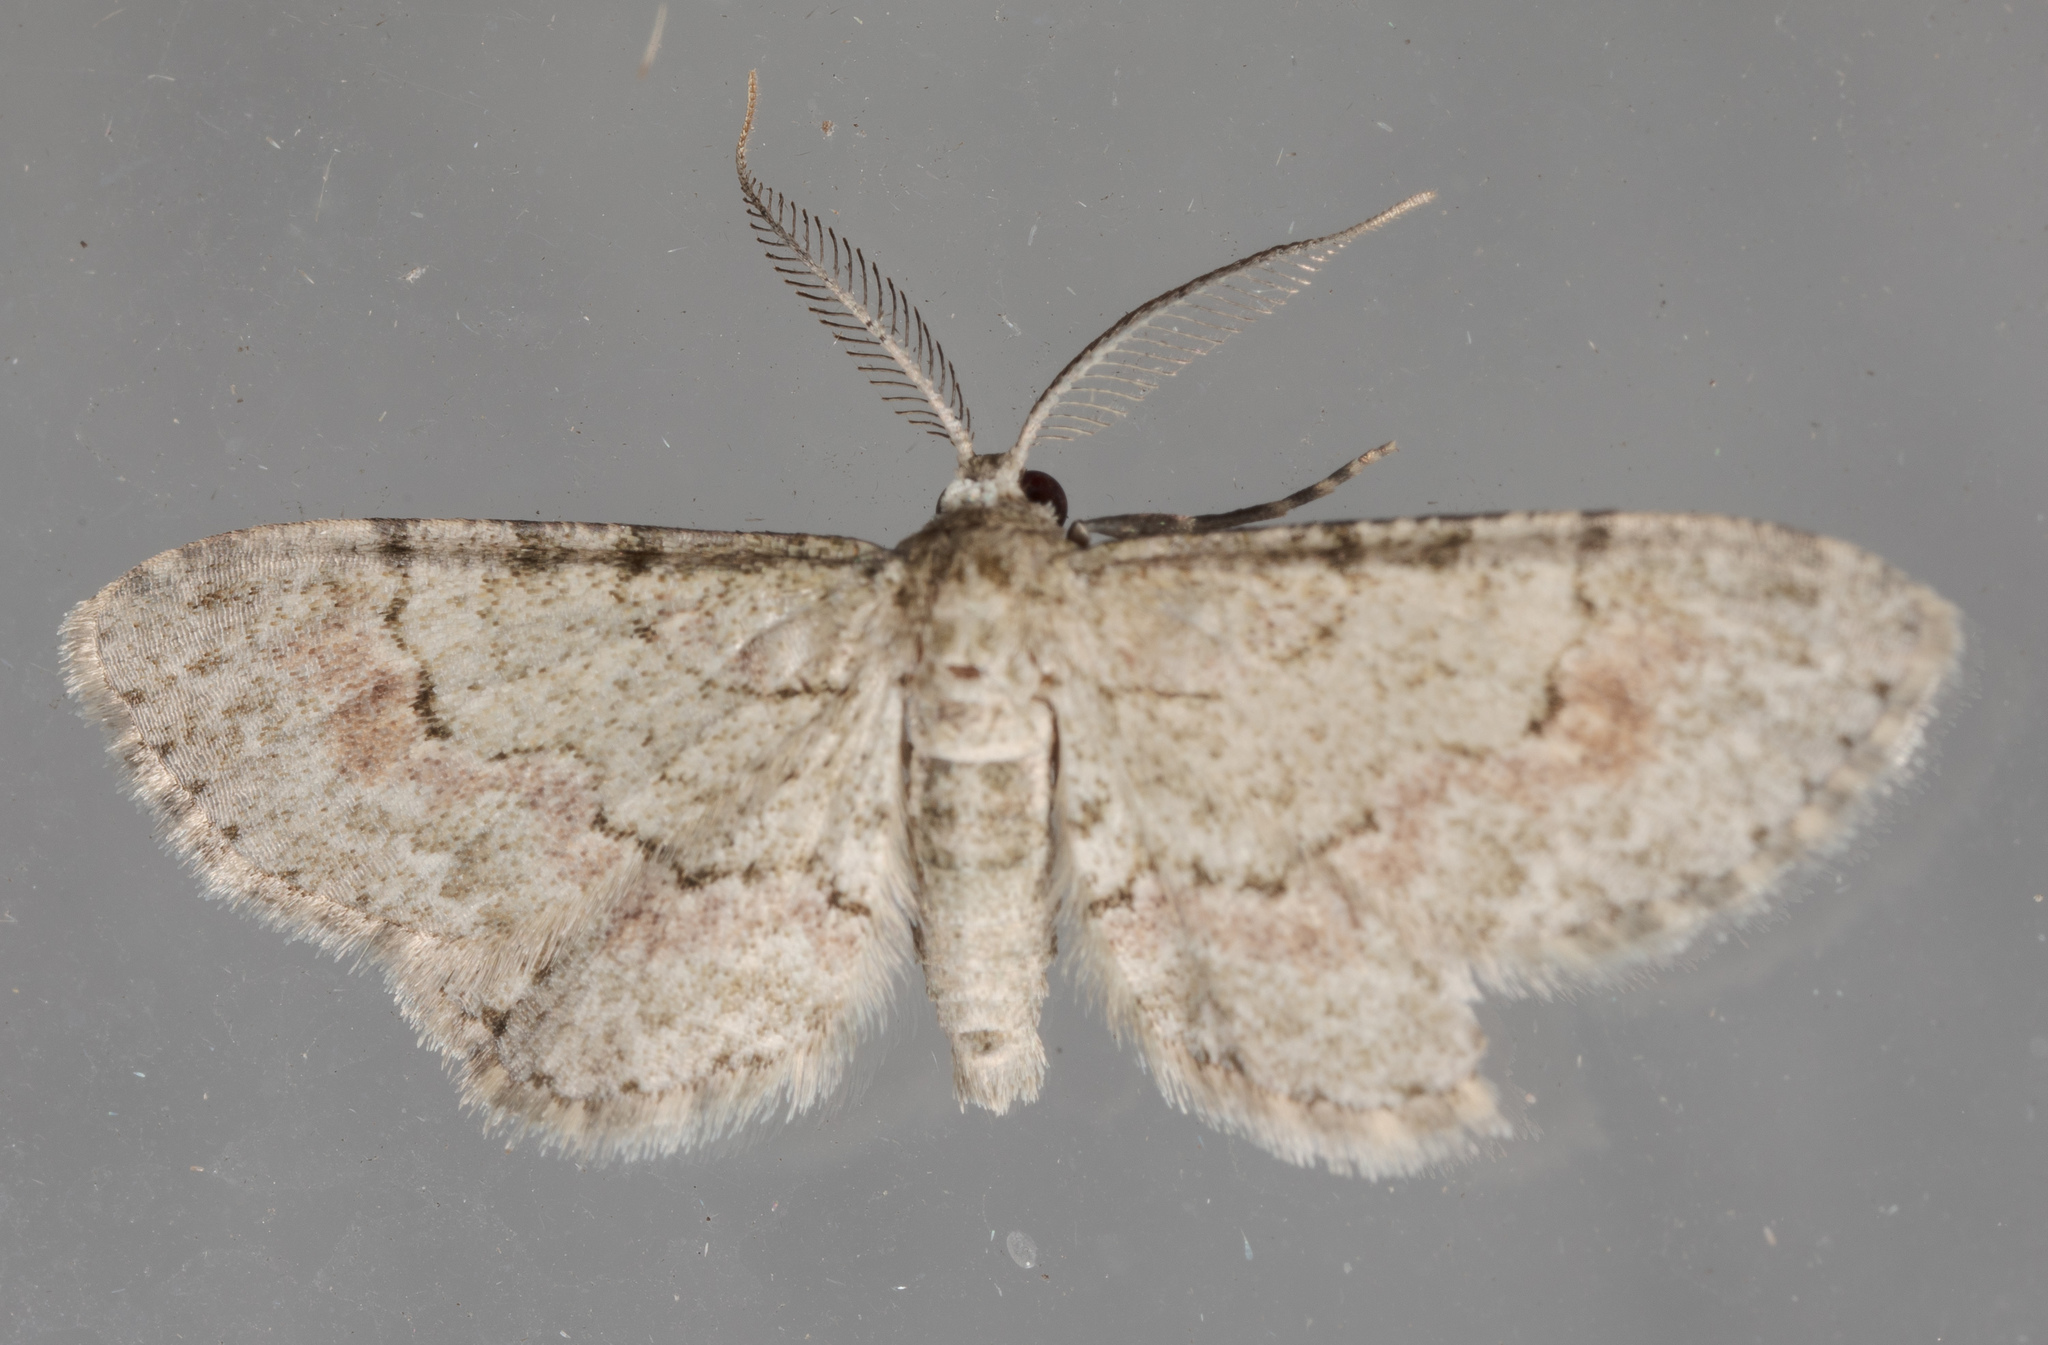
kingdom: Animalia
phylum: Arthropoda
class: Insecta
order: Lepidoptera
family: Geometridae
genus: Glenoides
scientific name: Glenoides texanaria
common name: Texas gray
